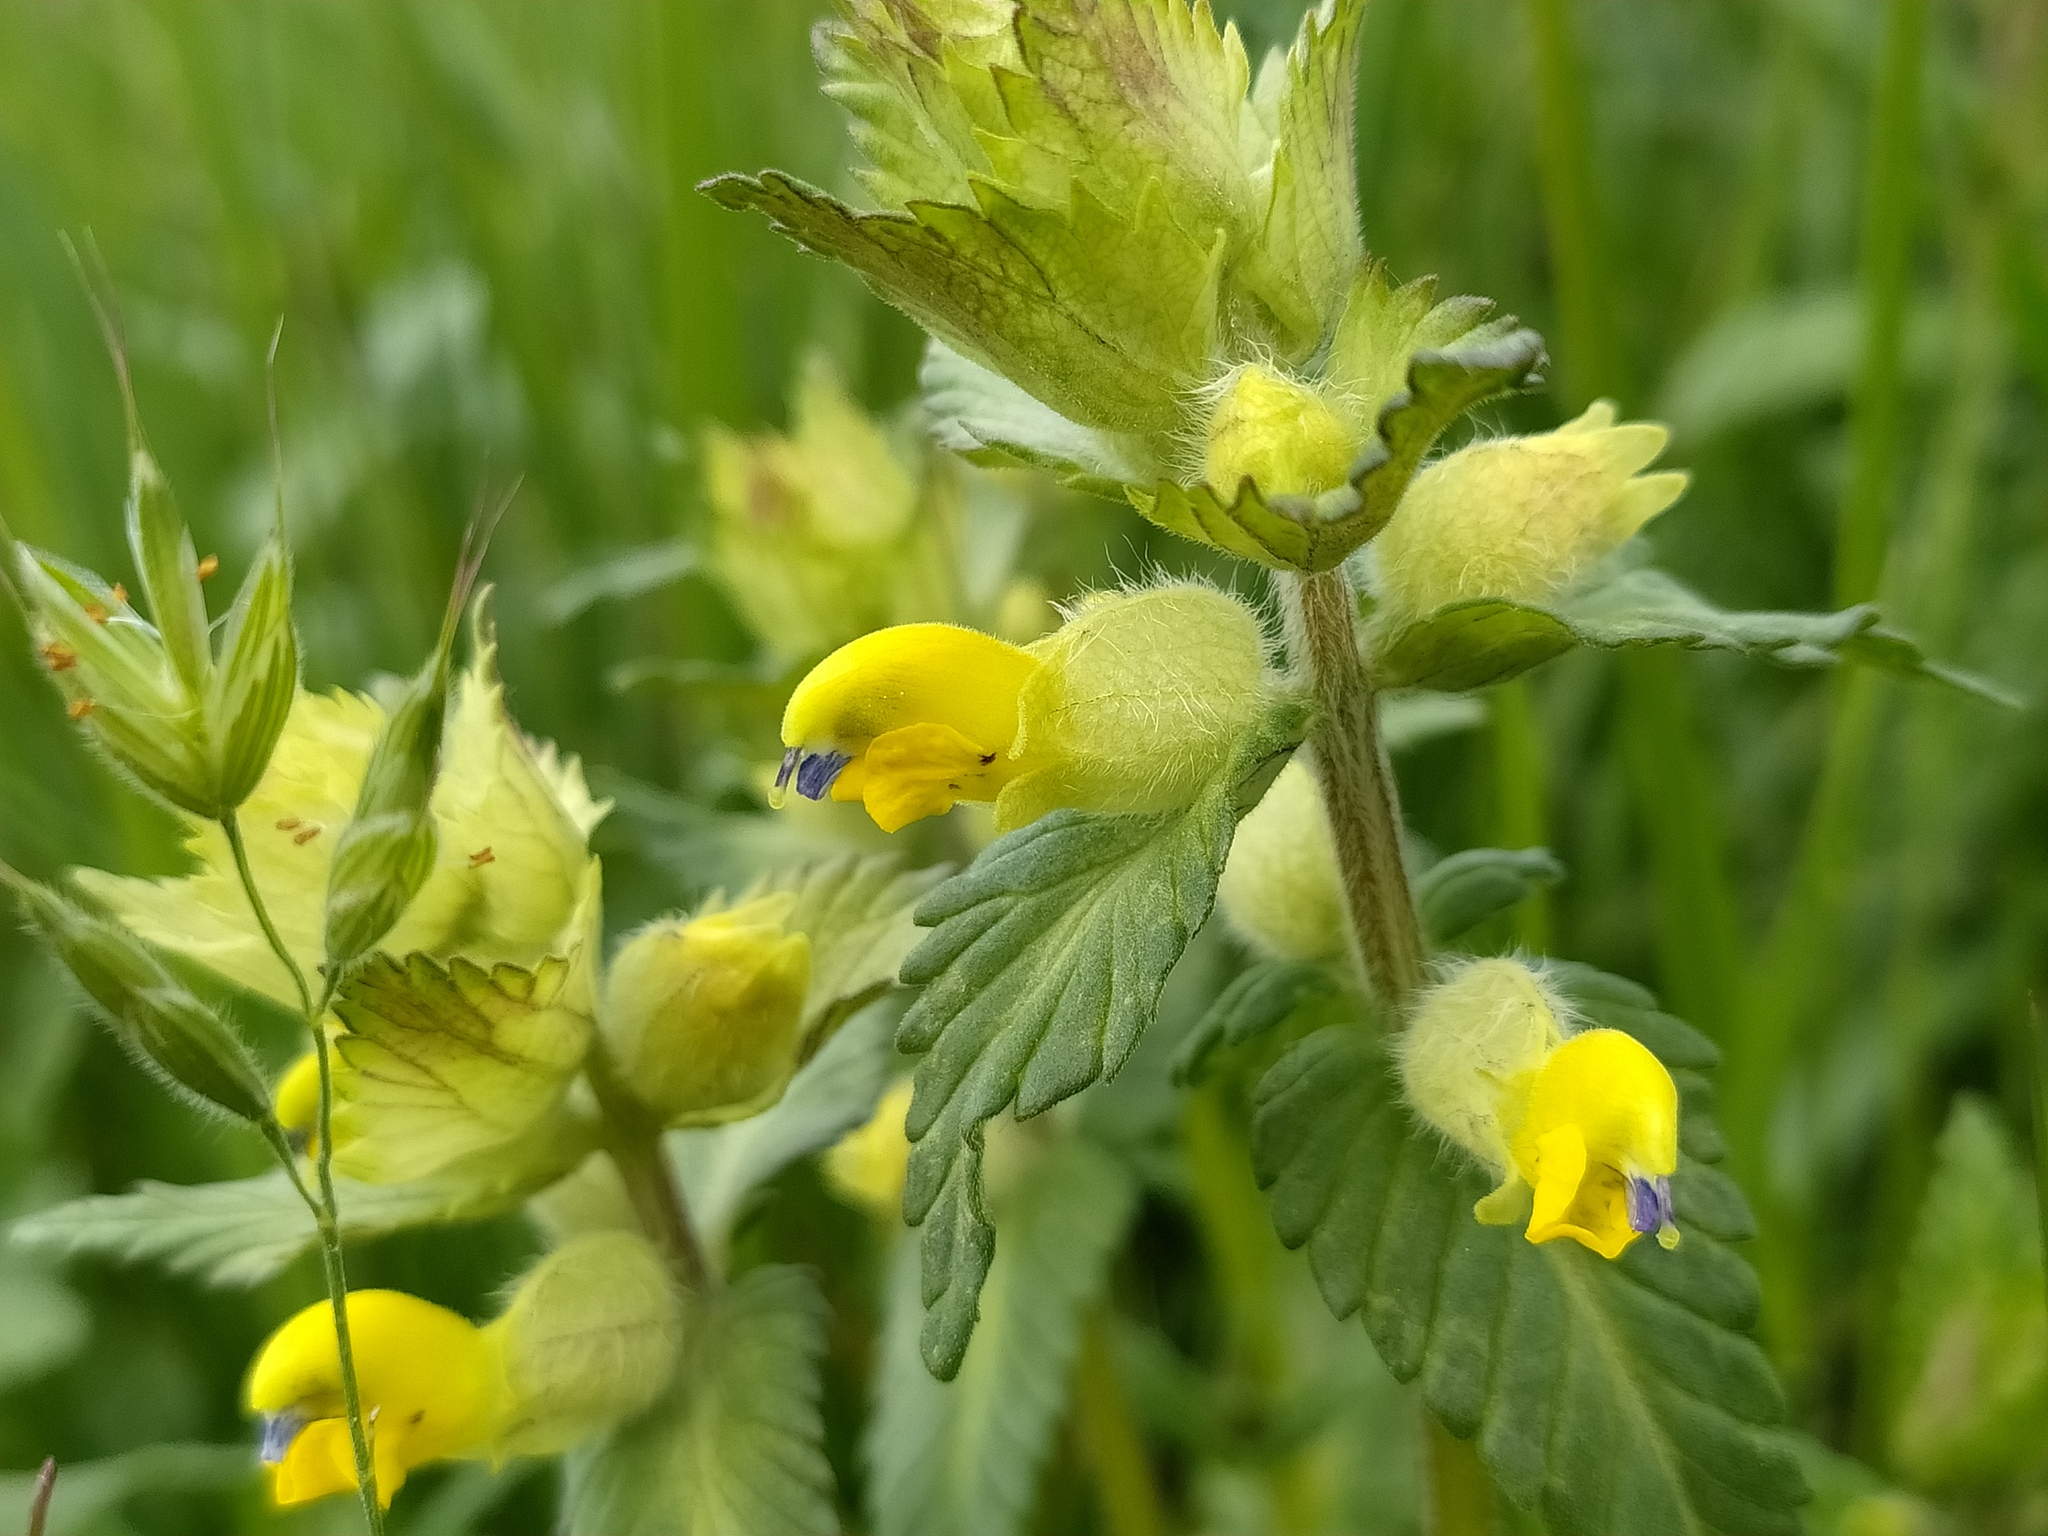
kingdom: Plantae
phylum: Tracheophyta
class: Magnoliopsida
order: Lamiales
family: Orobanchaceae
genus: Rhinanthus
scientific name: Rhinanthus alectorolophus
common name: Greater yellow-rattle
